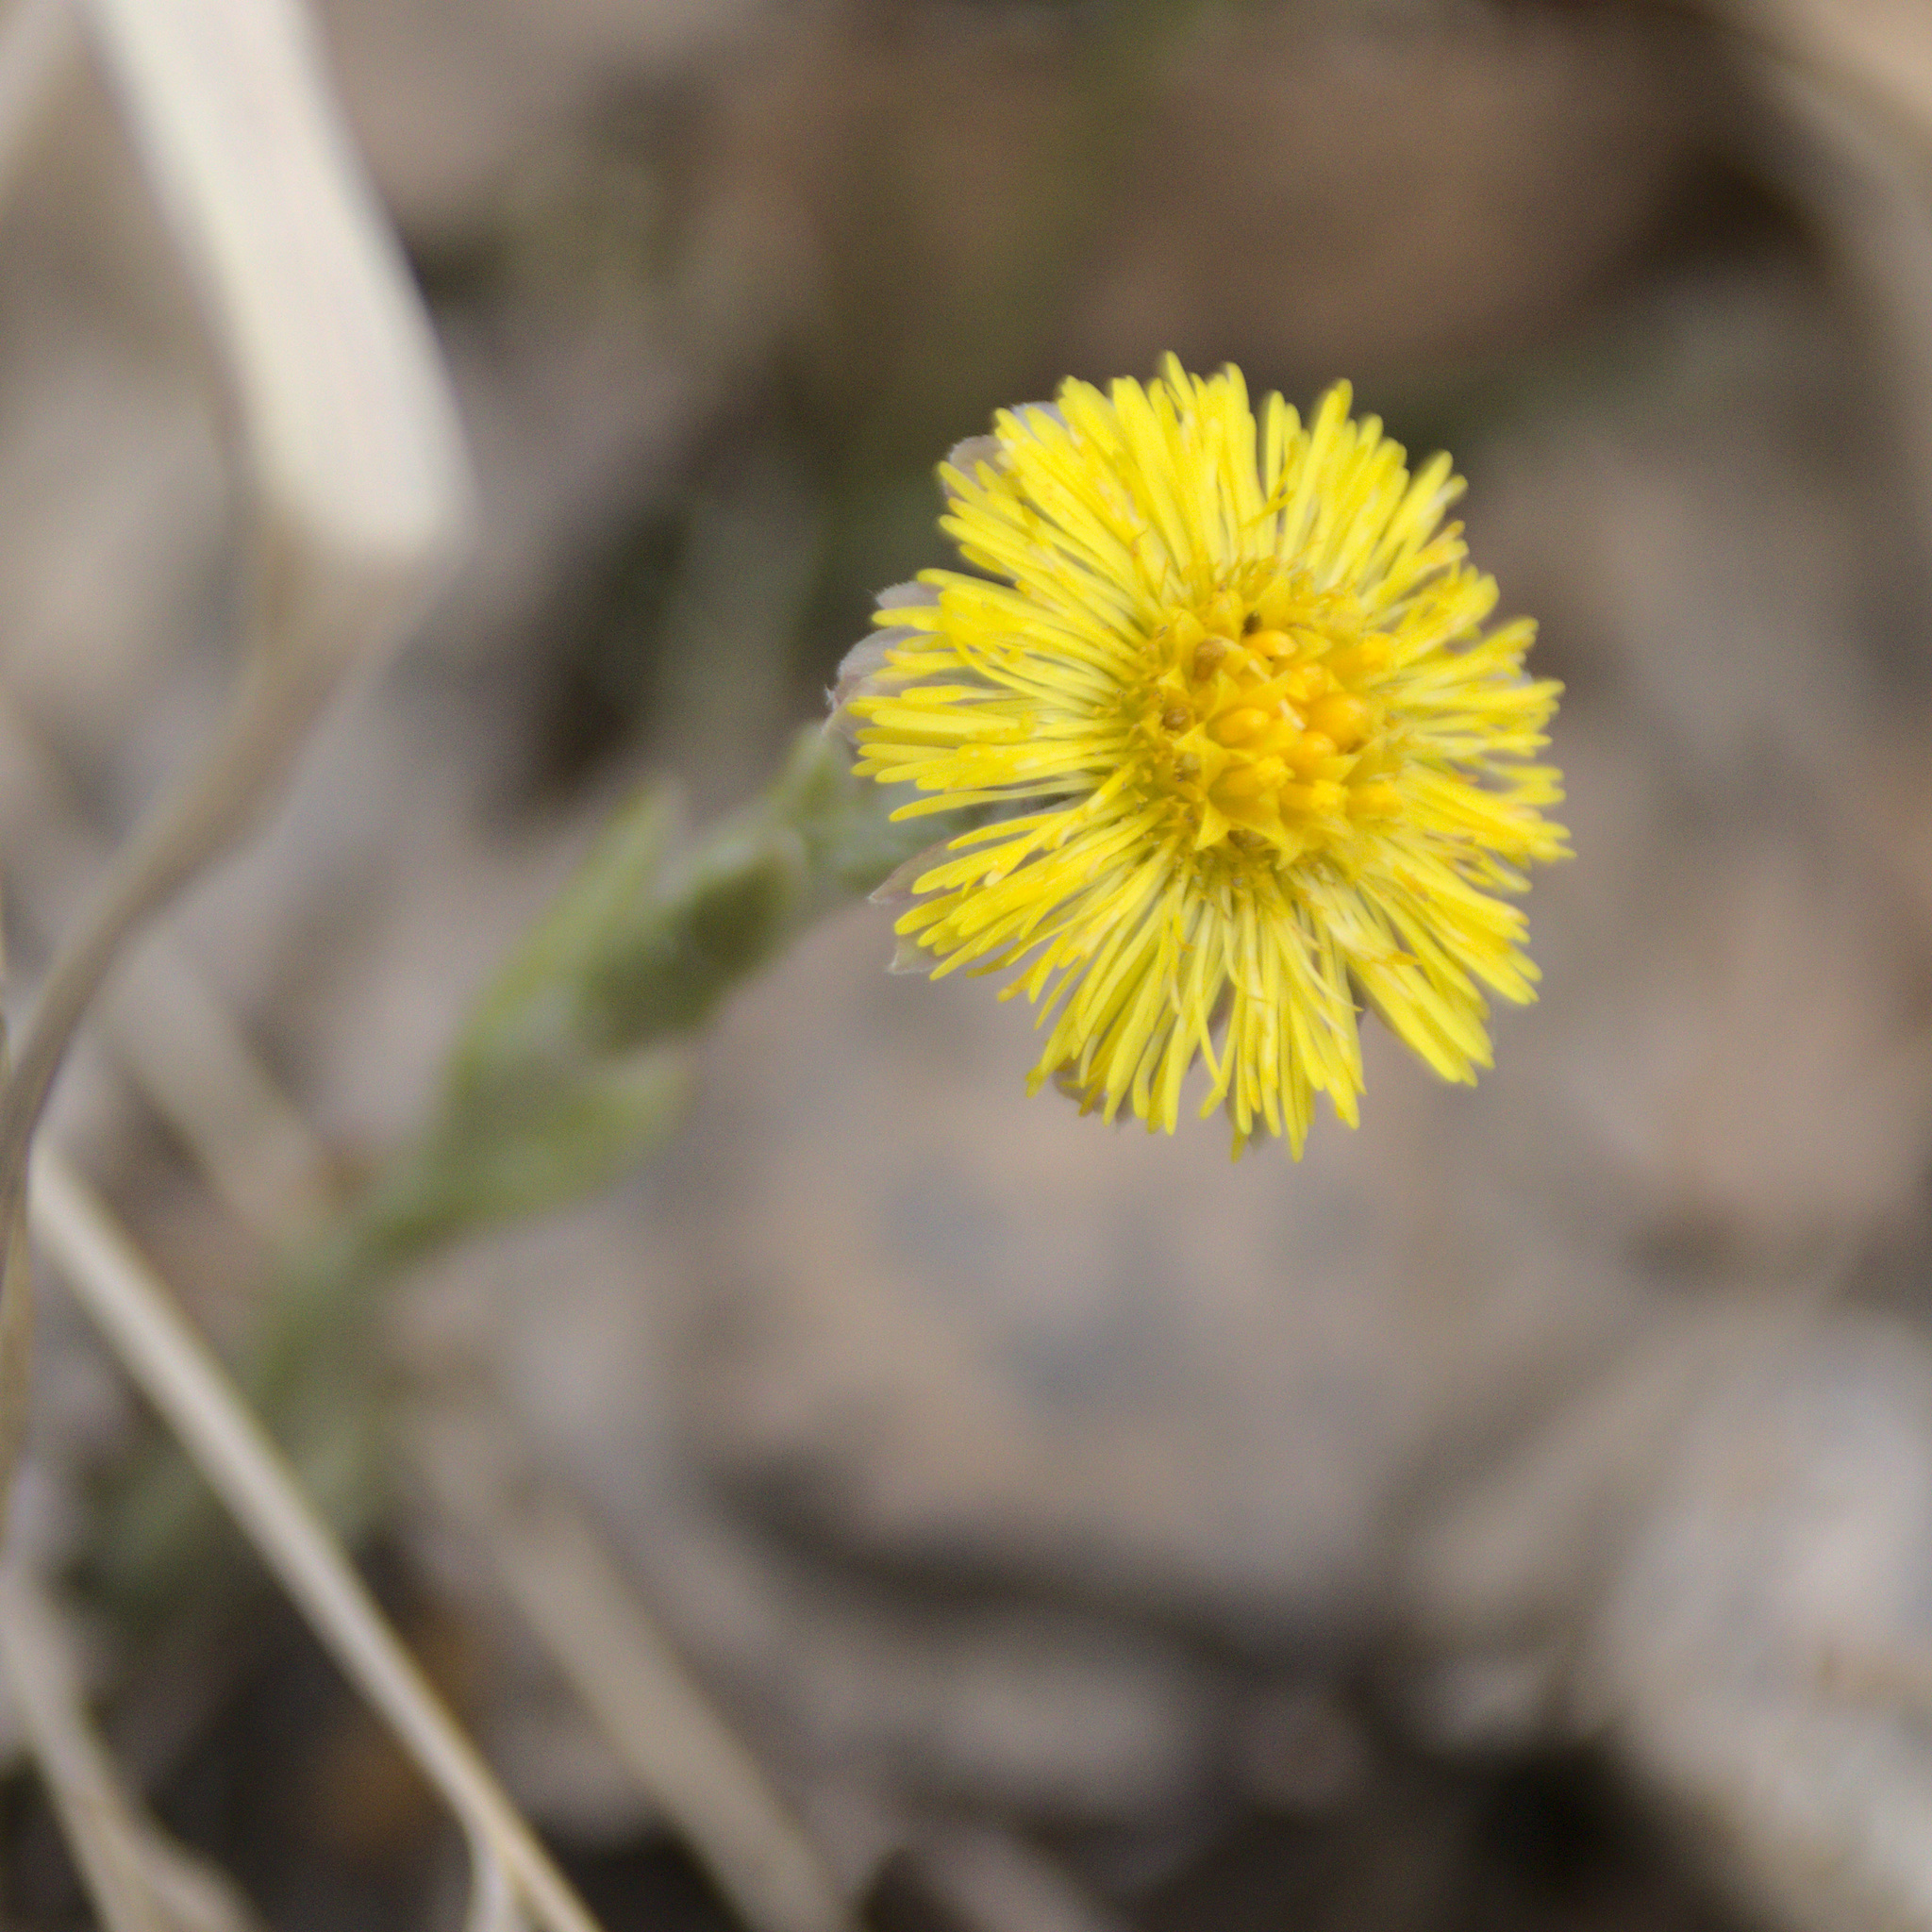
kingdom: Plantae
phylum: Tracheophyta
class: Magnoliopsida
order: Asterales
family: Asteraceae
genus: Tussilago
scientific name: Tussilago farfara
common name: Coltsfoot
